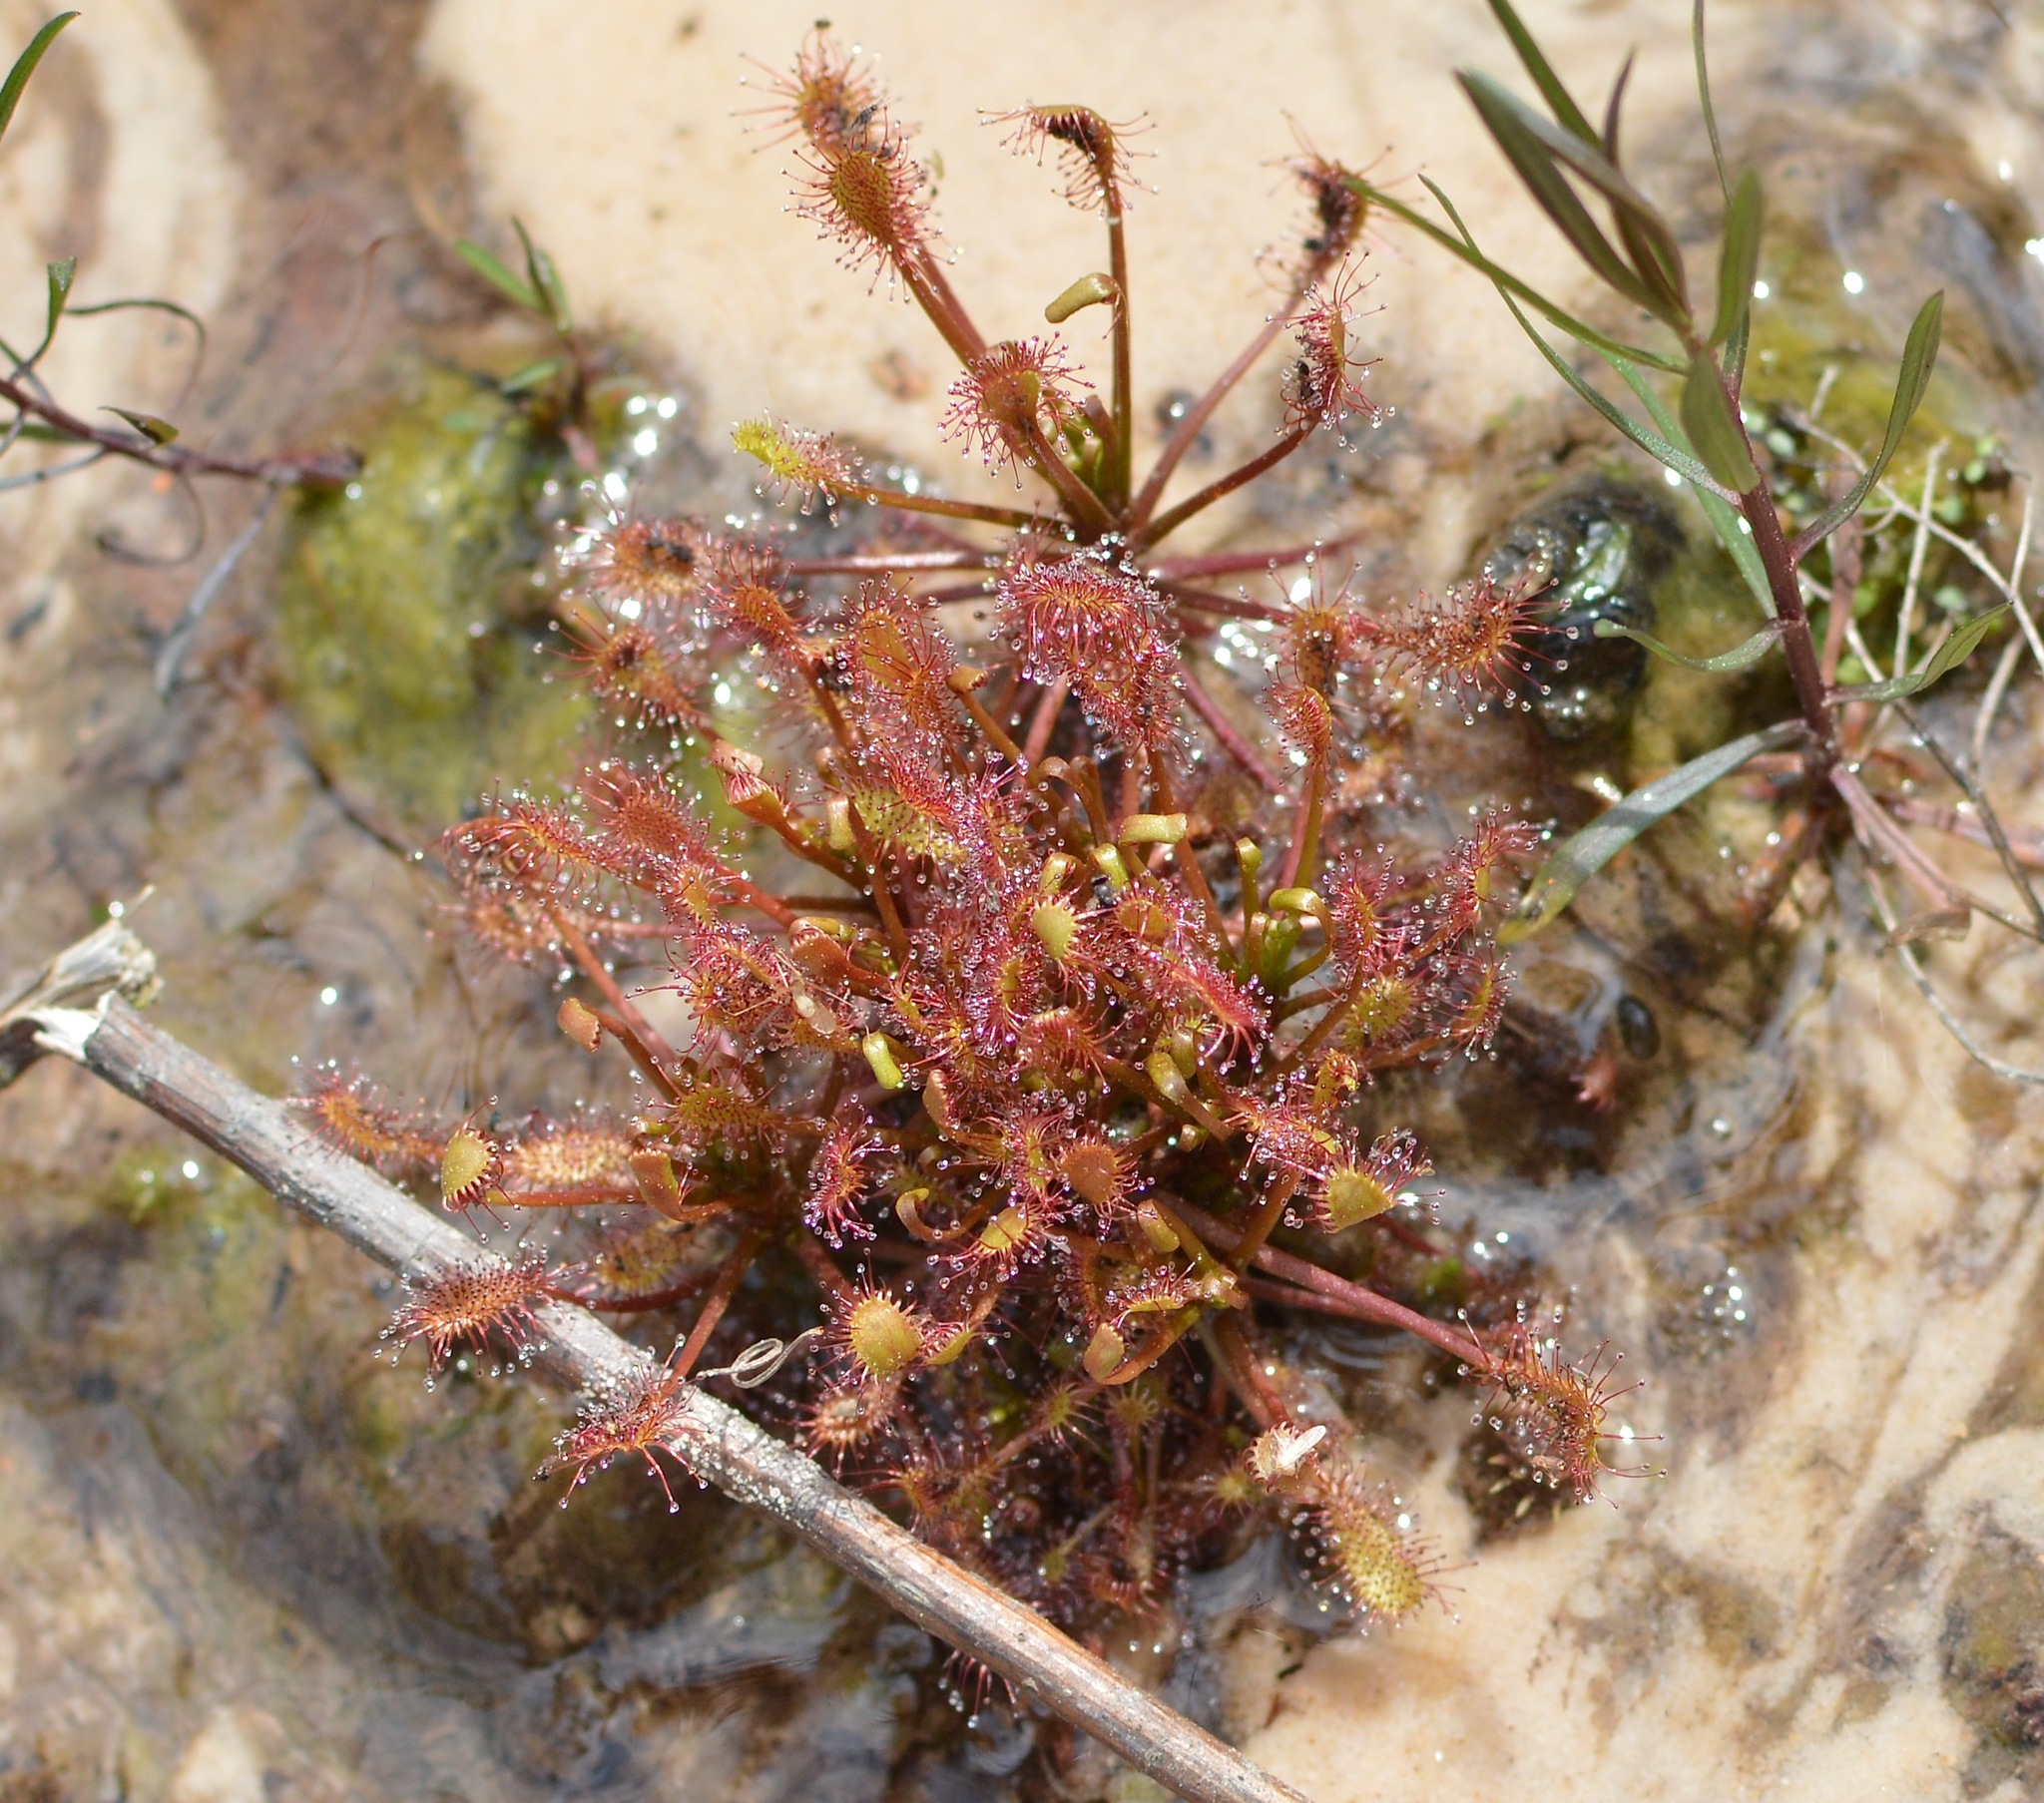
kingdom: Plantae
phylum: Tracheophyta
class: Magnoliopsida
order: Caryophyllales
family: Droseraceae
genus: Drosera
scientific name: Drosera intermedia
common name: Oblong-leaved sundew
